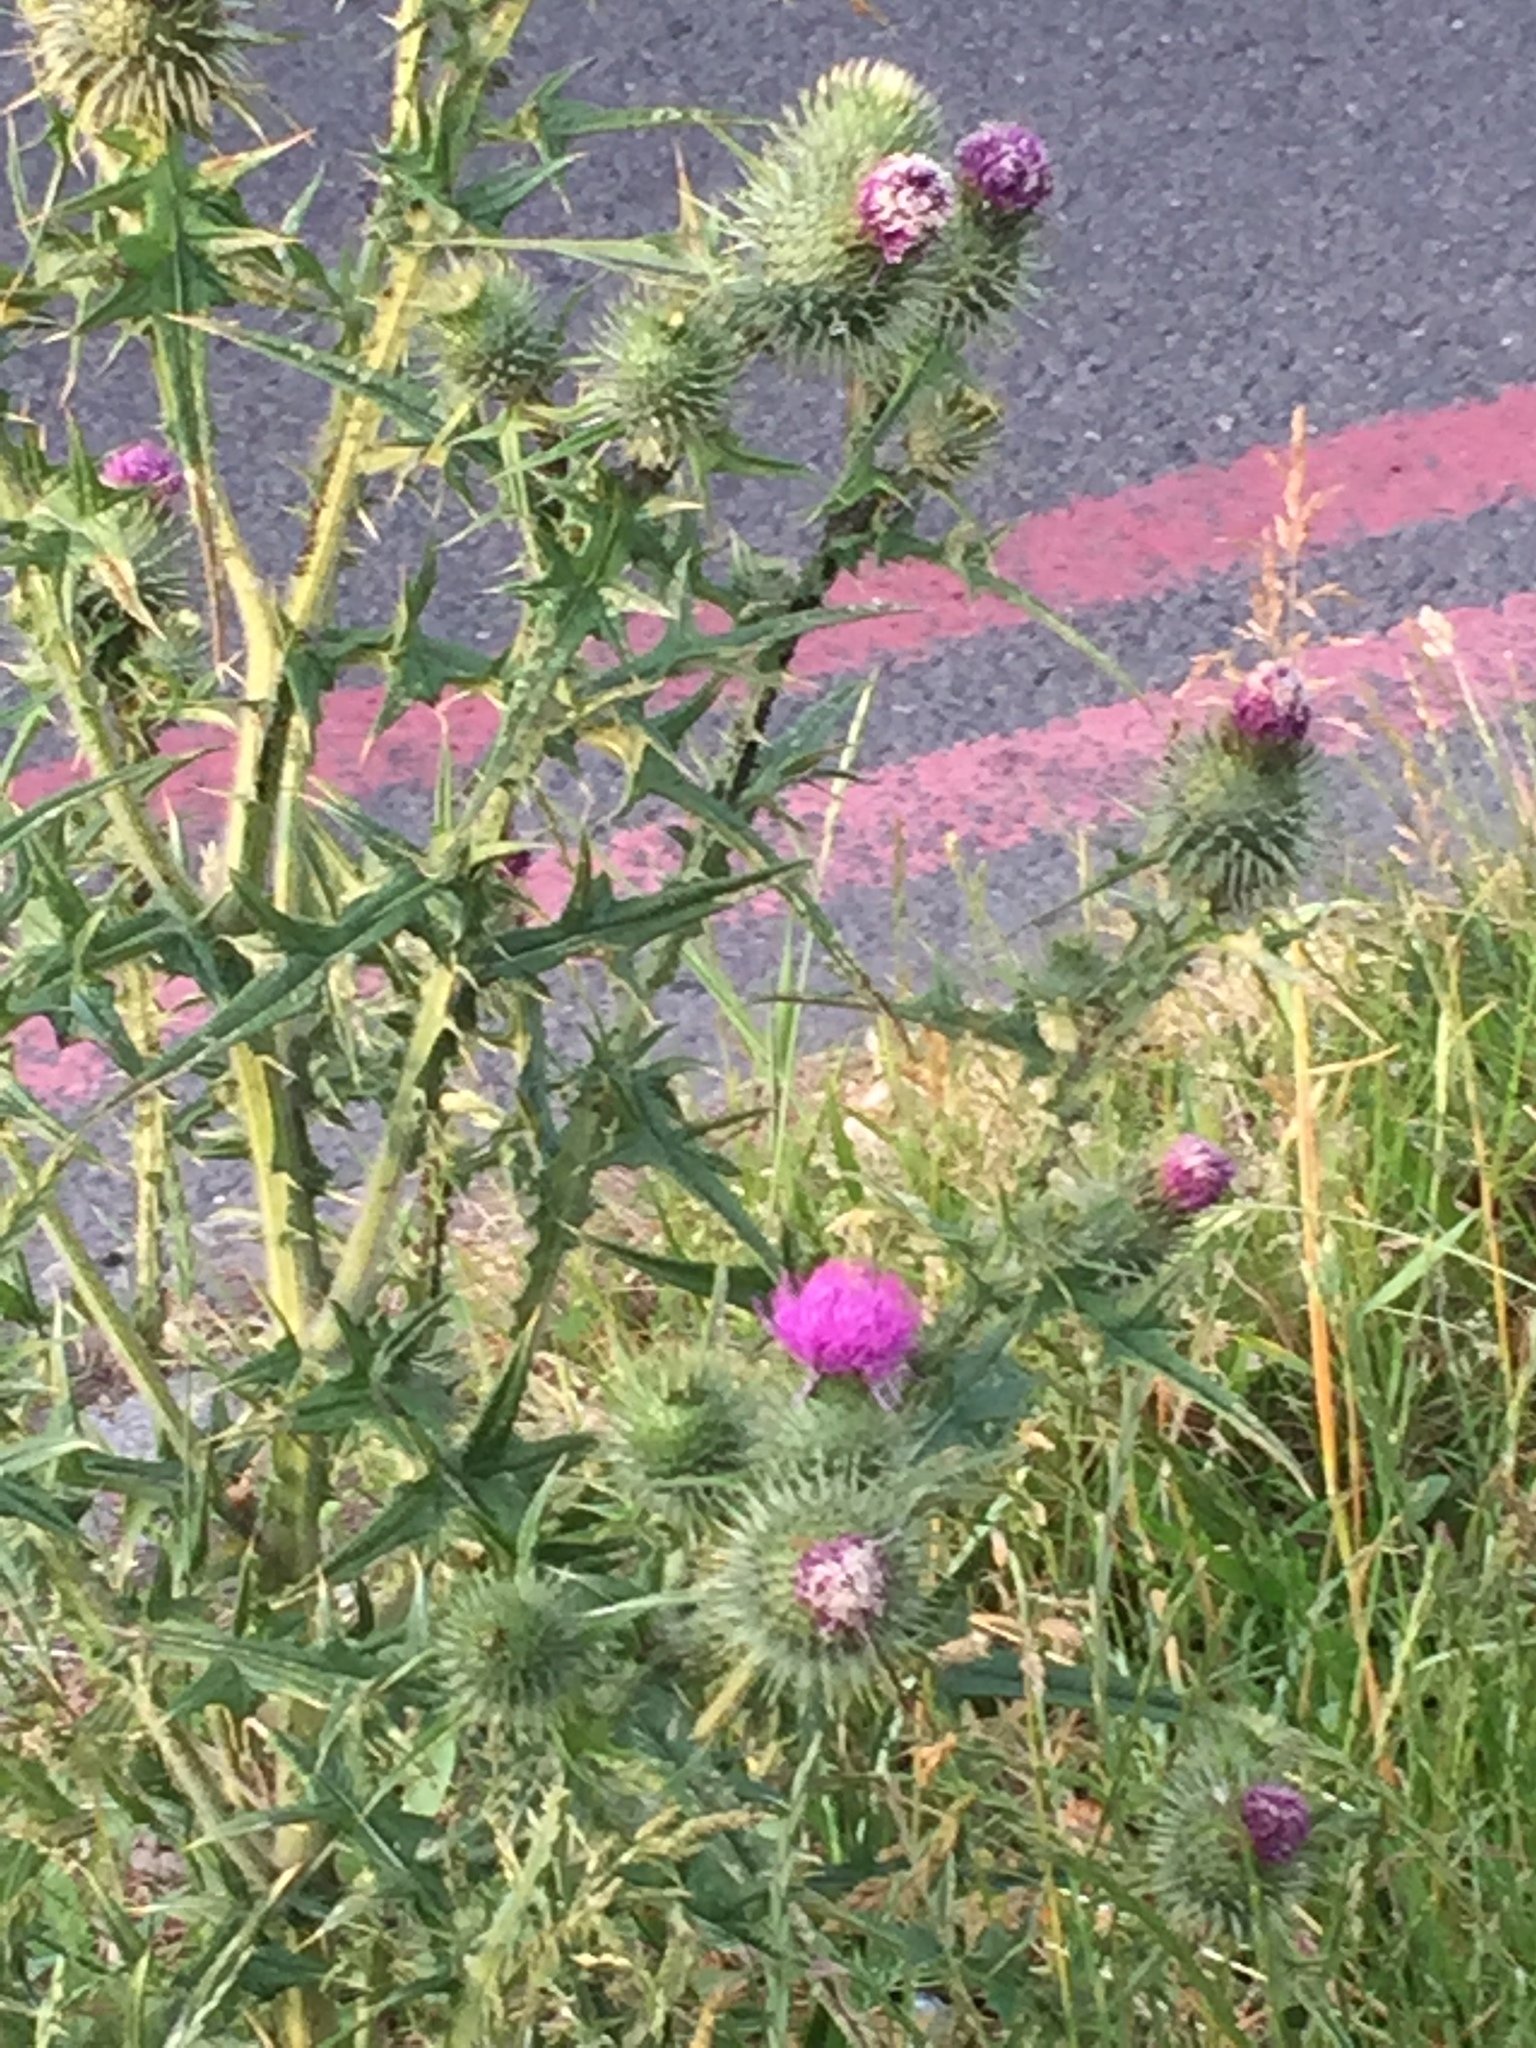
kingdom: Plantae
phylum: Tracheophyta
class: Magnoliopsida
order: Asterales
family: Asteraceae
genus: Cirsium
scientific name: Cirsium vulgare
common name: Bull thistle
